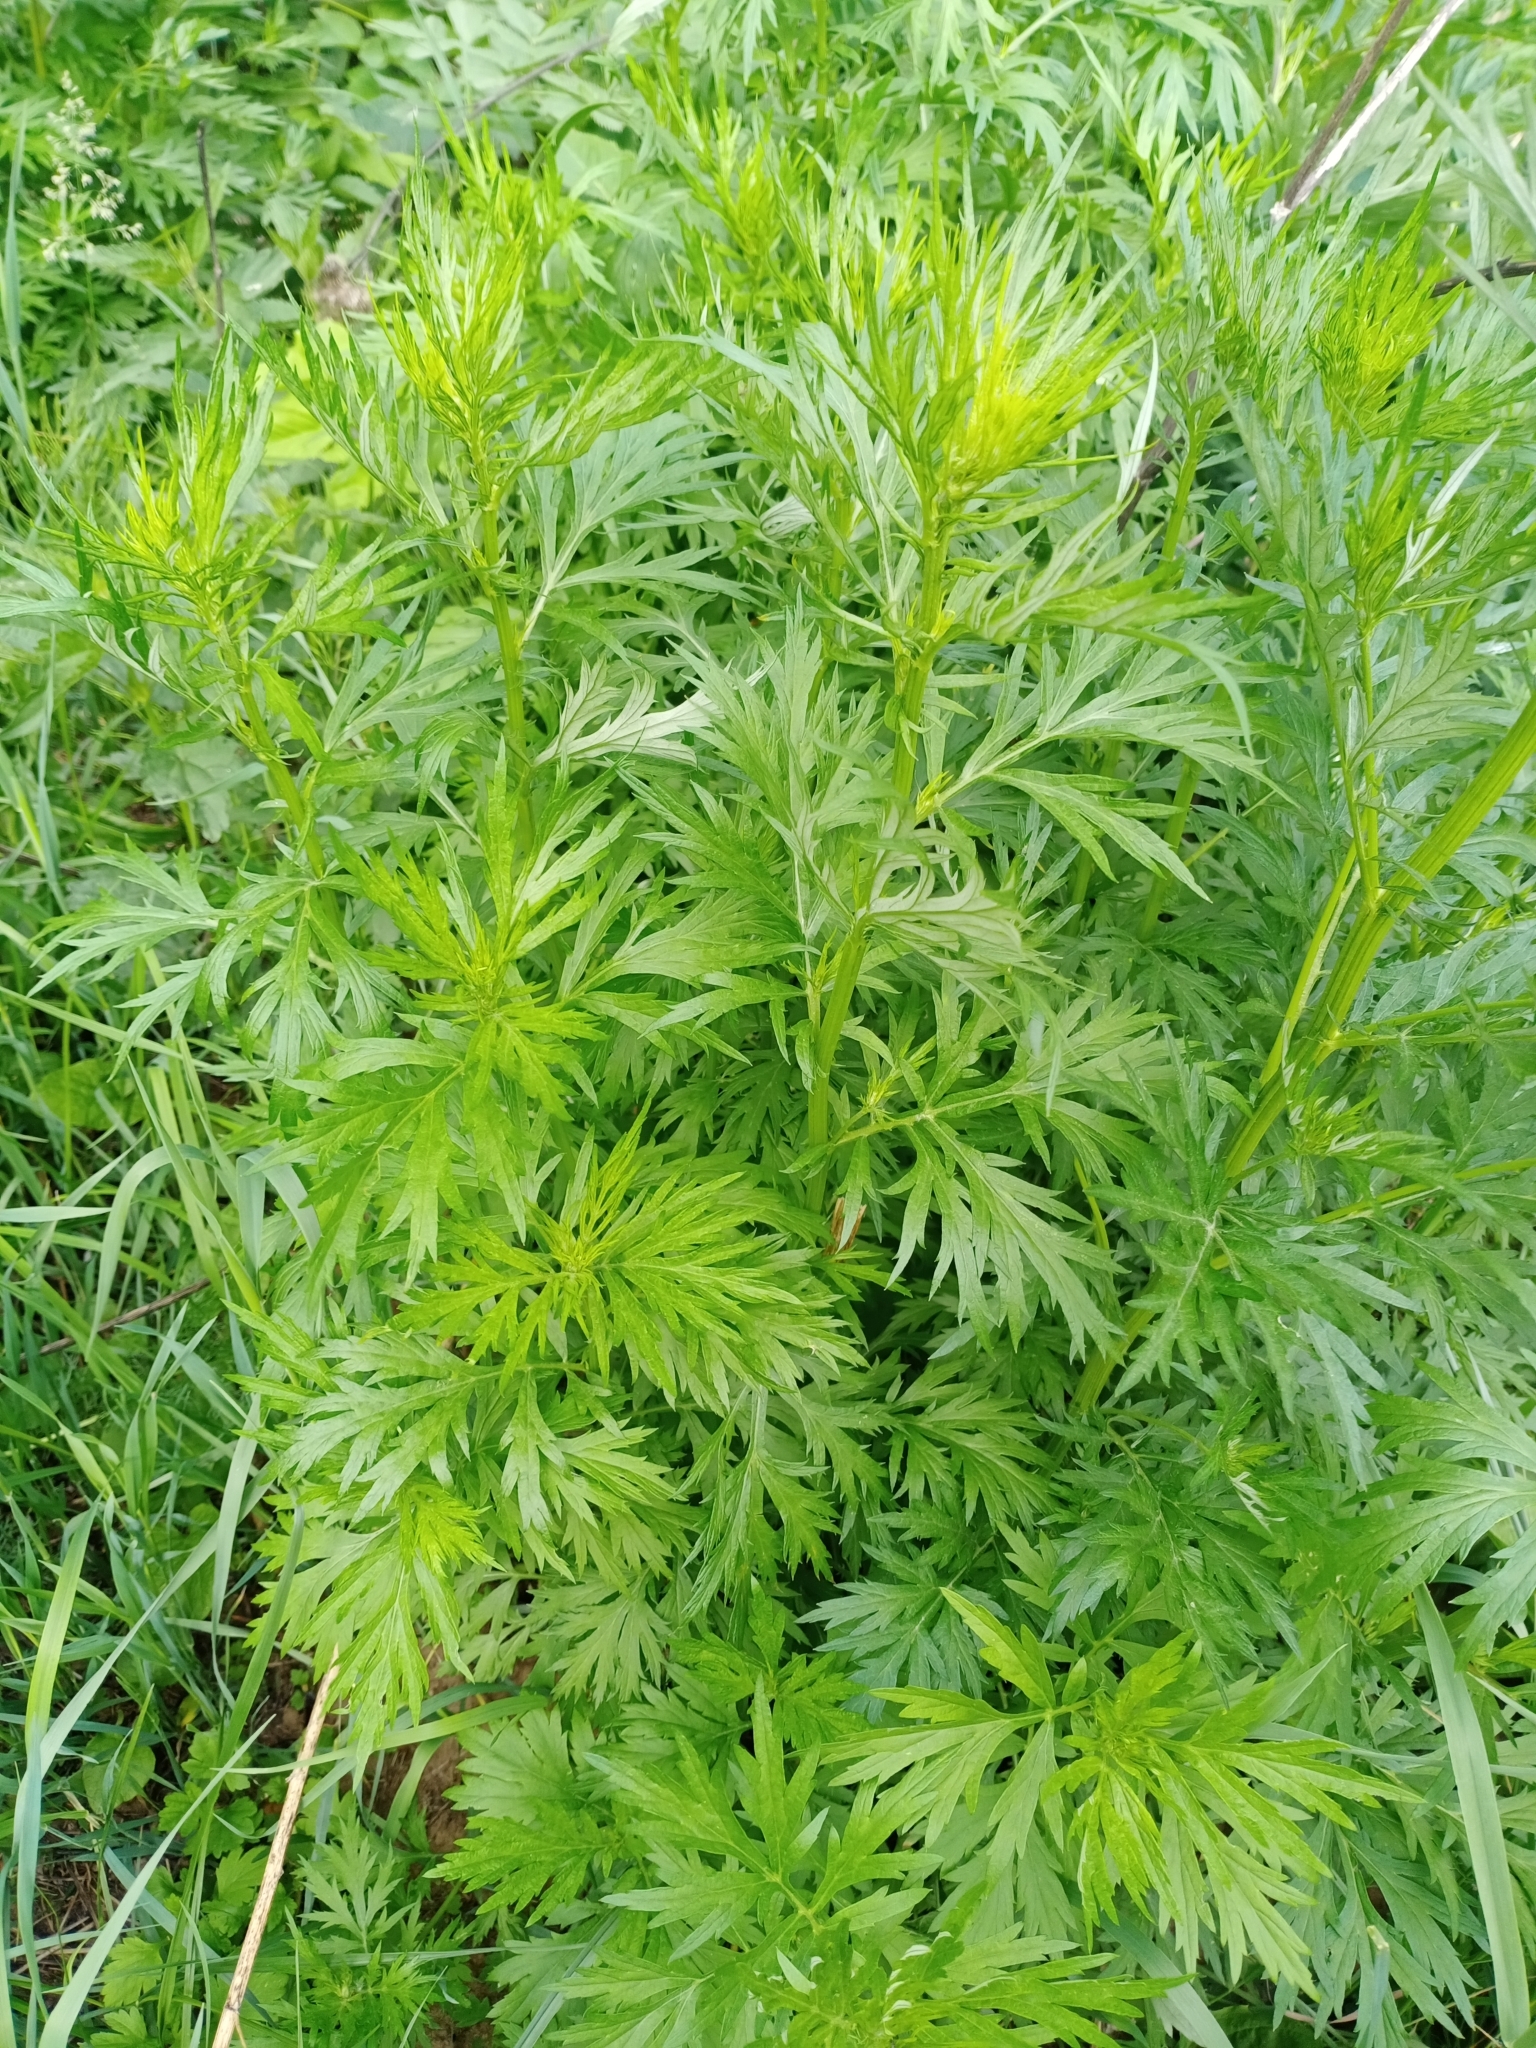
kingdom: Plantae
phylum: Tracheophyta
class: Magnoliopsida
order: Asterales
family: Asteraceae
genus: Artemisia
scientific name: Artemisia vulgaris
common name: Mugwort
